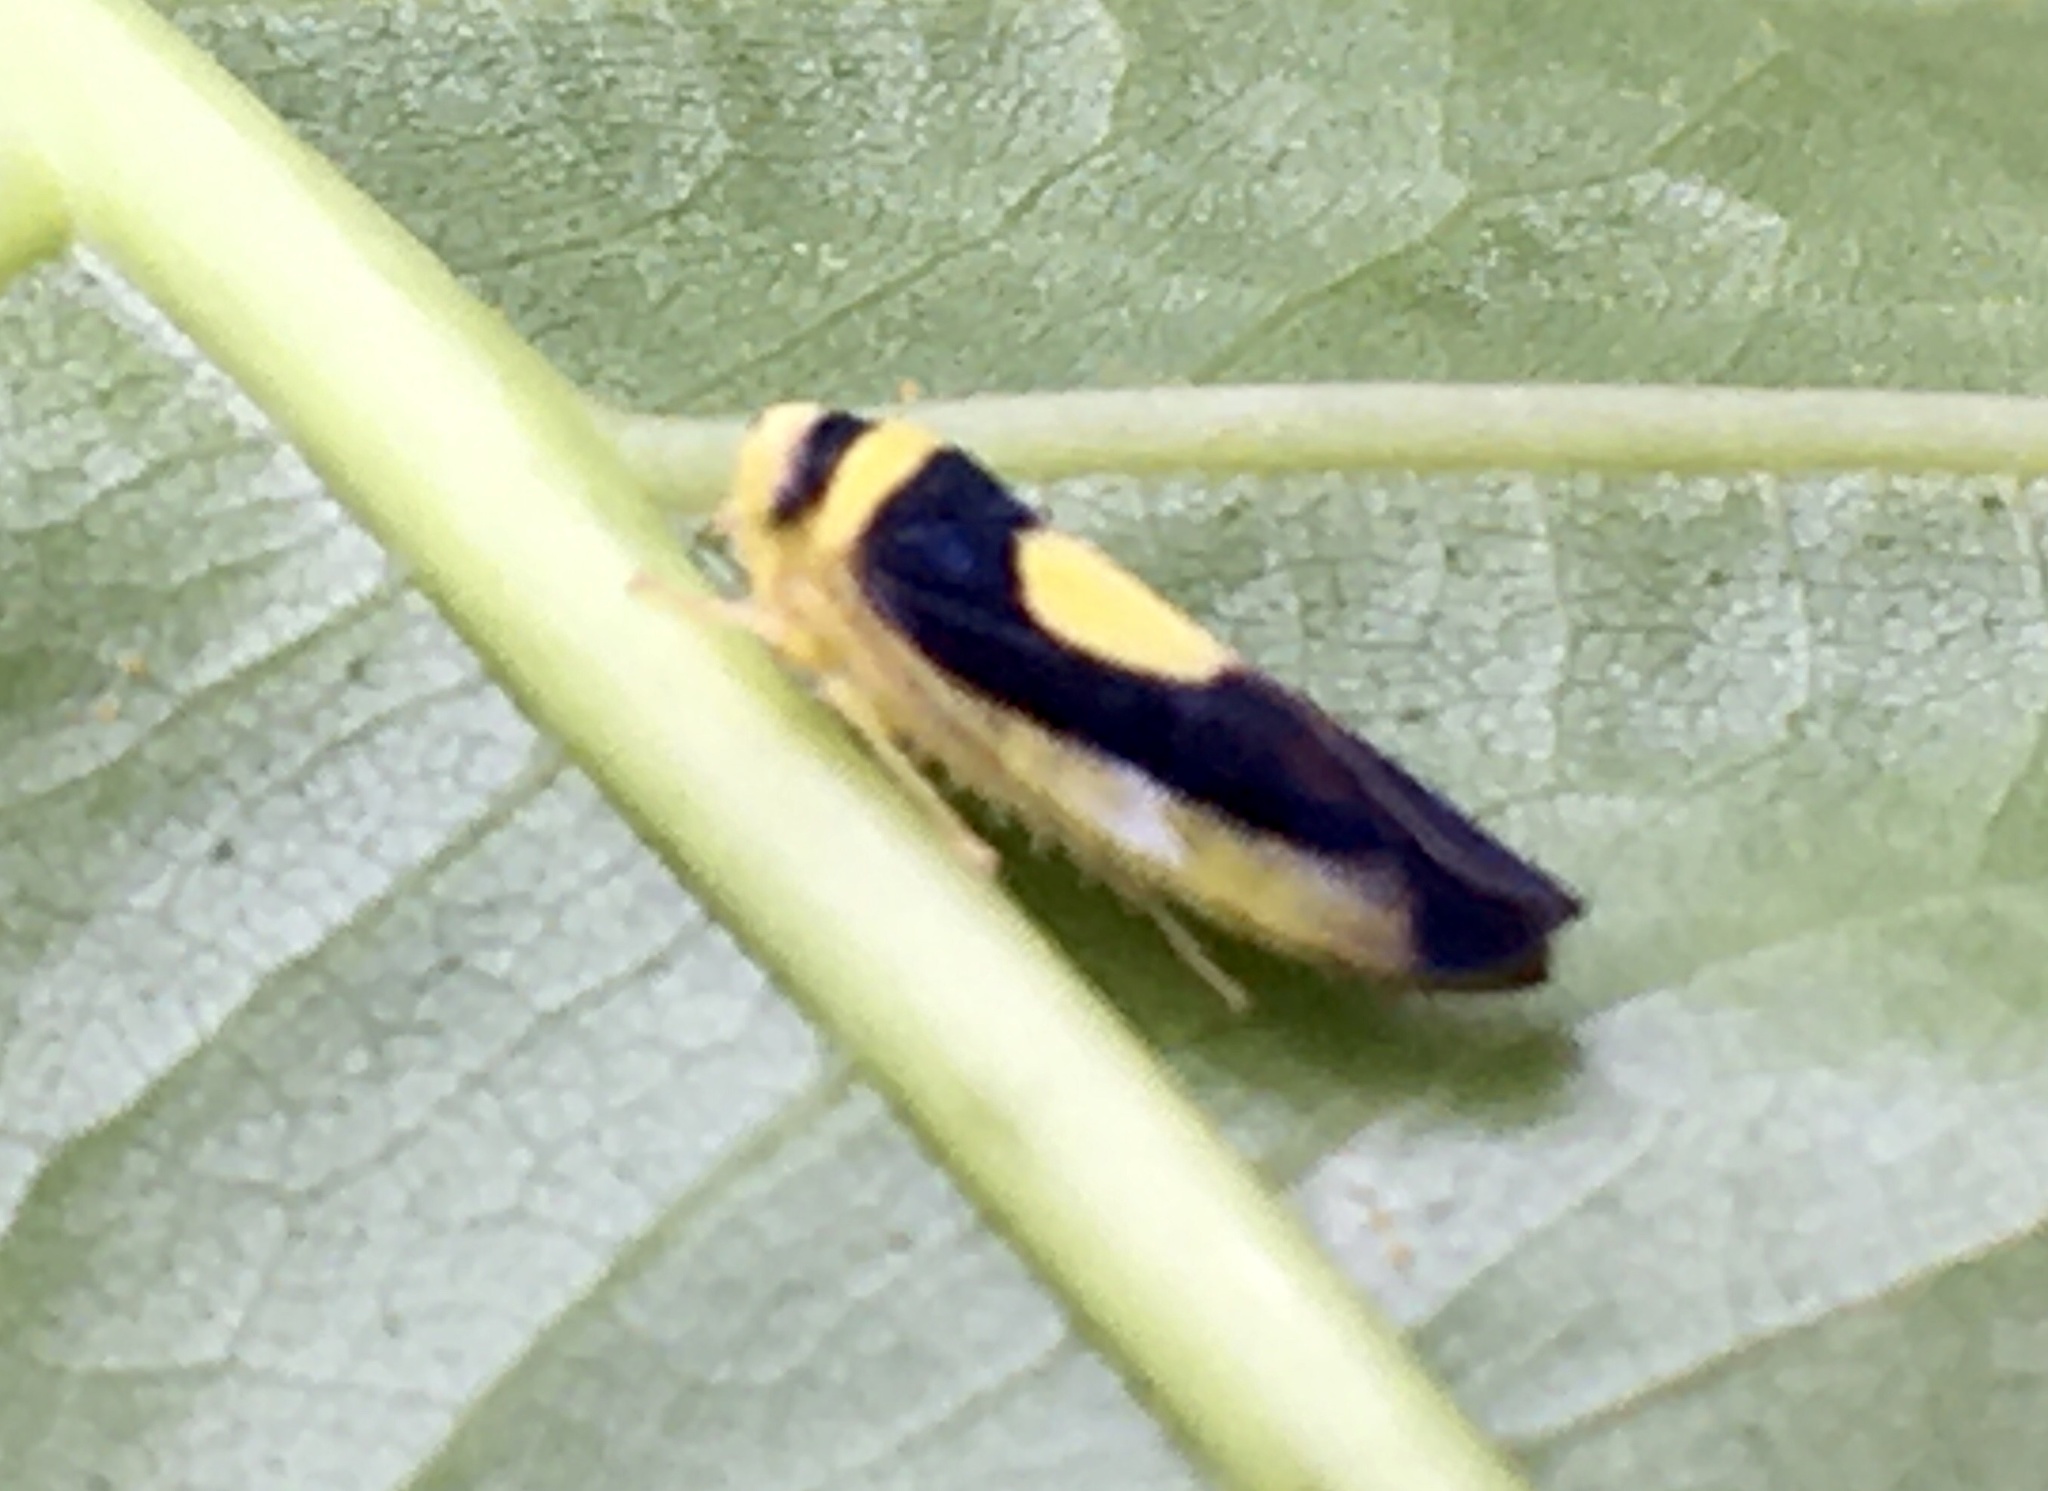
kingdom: Animalia
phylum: Arthropoda
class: Insecta
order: Hemiptera
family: Cicadellidae
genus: Colladonus
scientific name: Colladonus clitellarius
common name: The saddleback leafhopper
